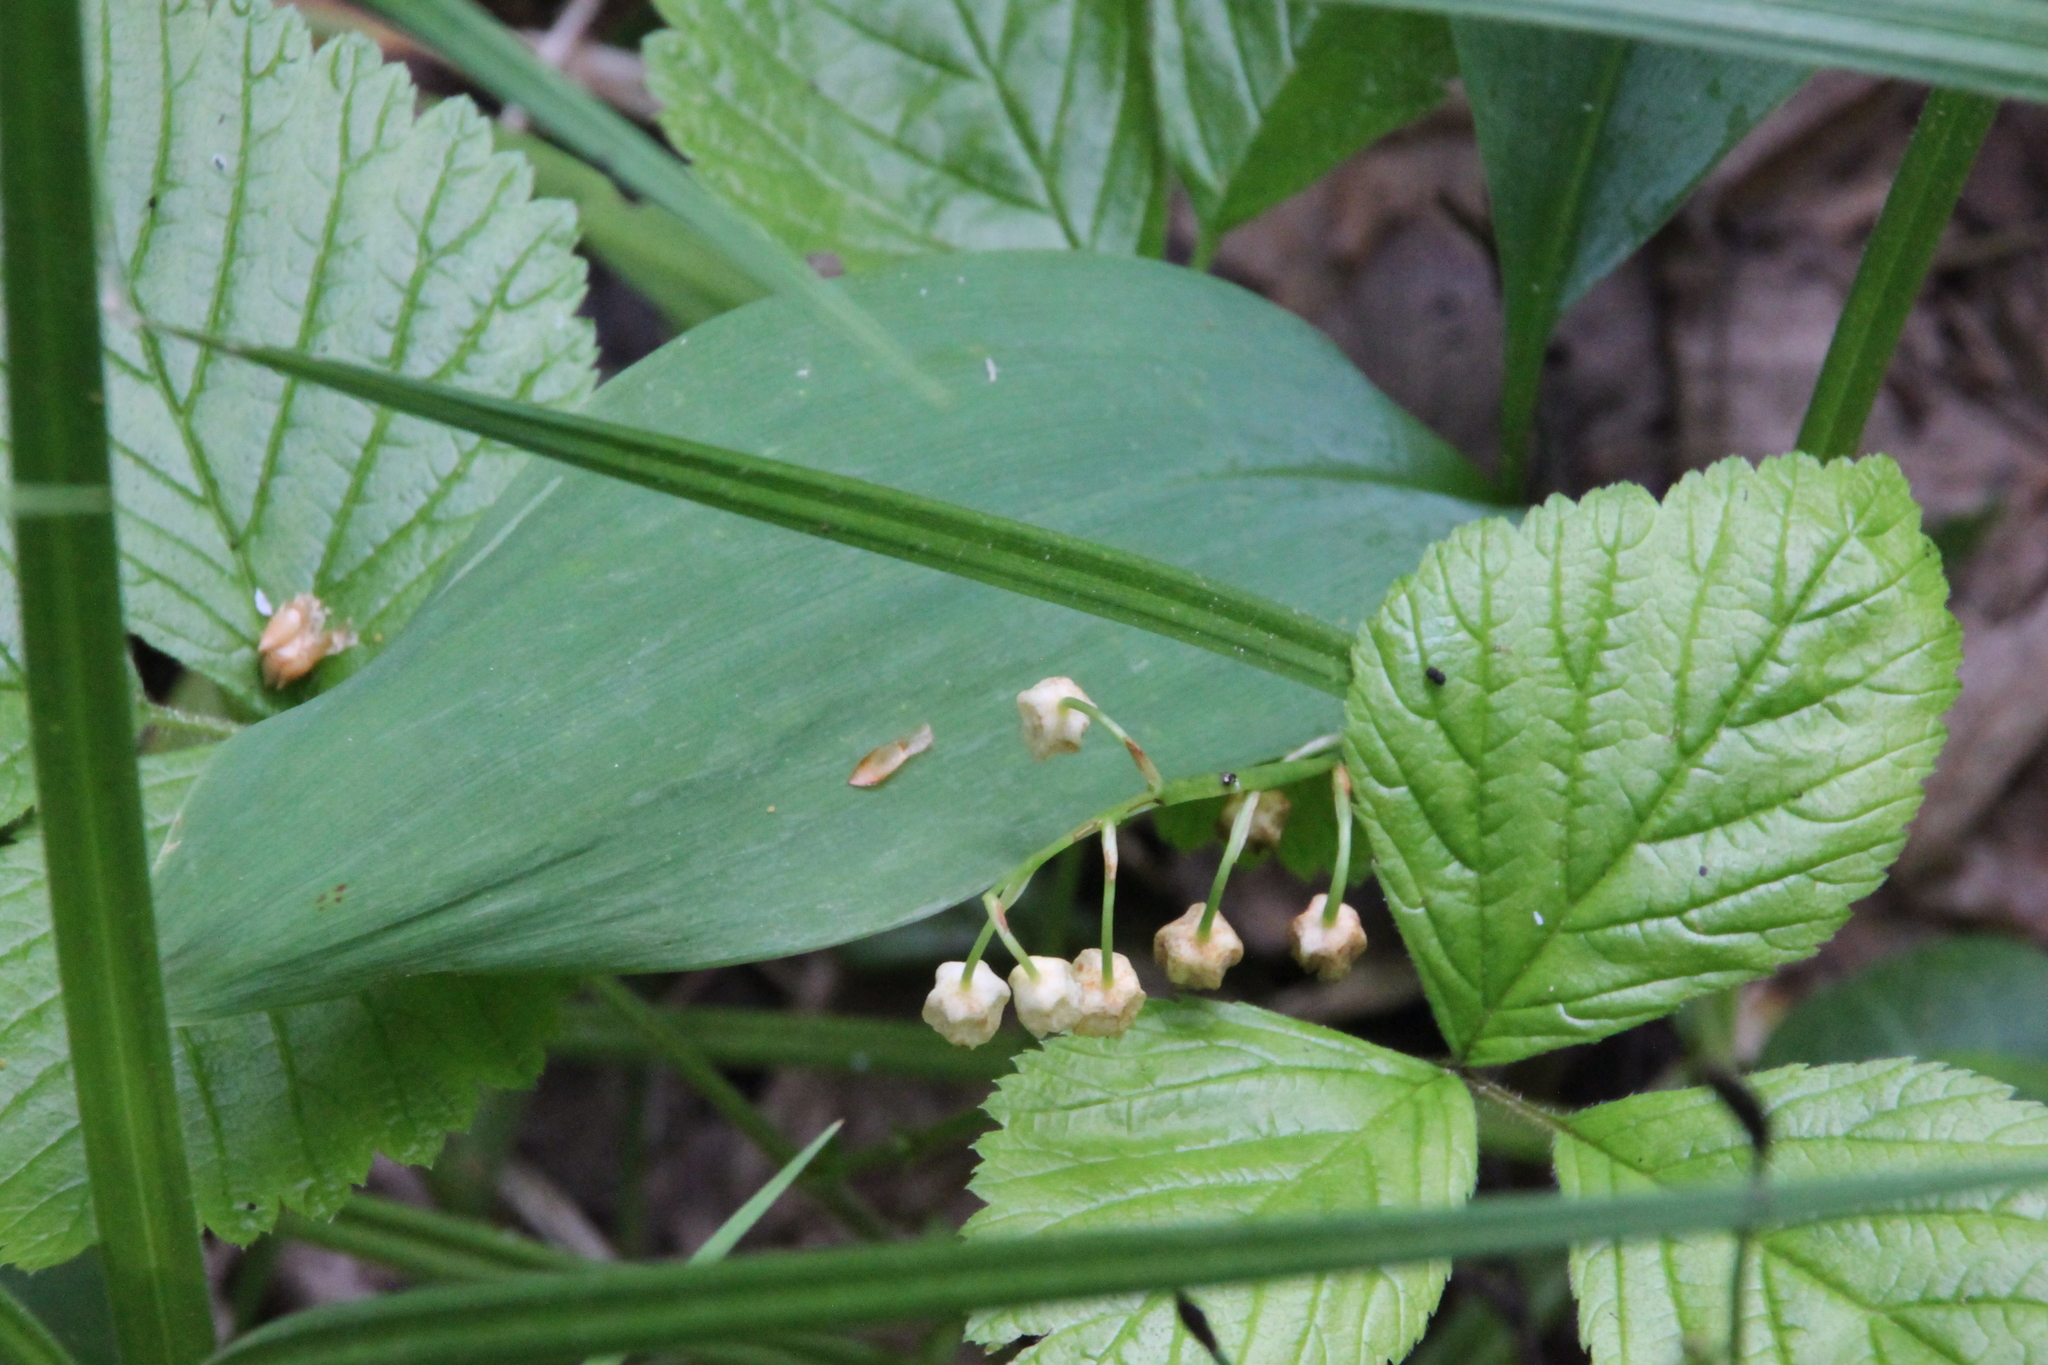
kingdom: Plantae
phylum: Tracheophyta
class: Liliopsida
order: Asparagales
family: Asparagaceae
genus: Convallaria
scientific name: Convallaria majalis
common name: Lily-of-the-valley
